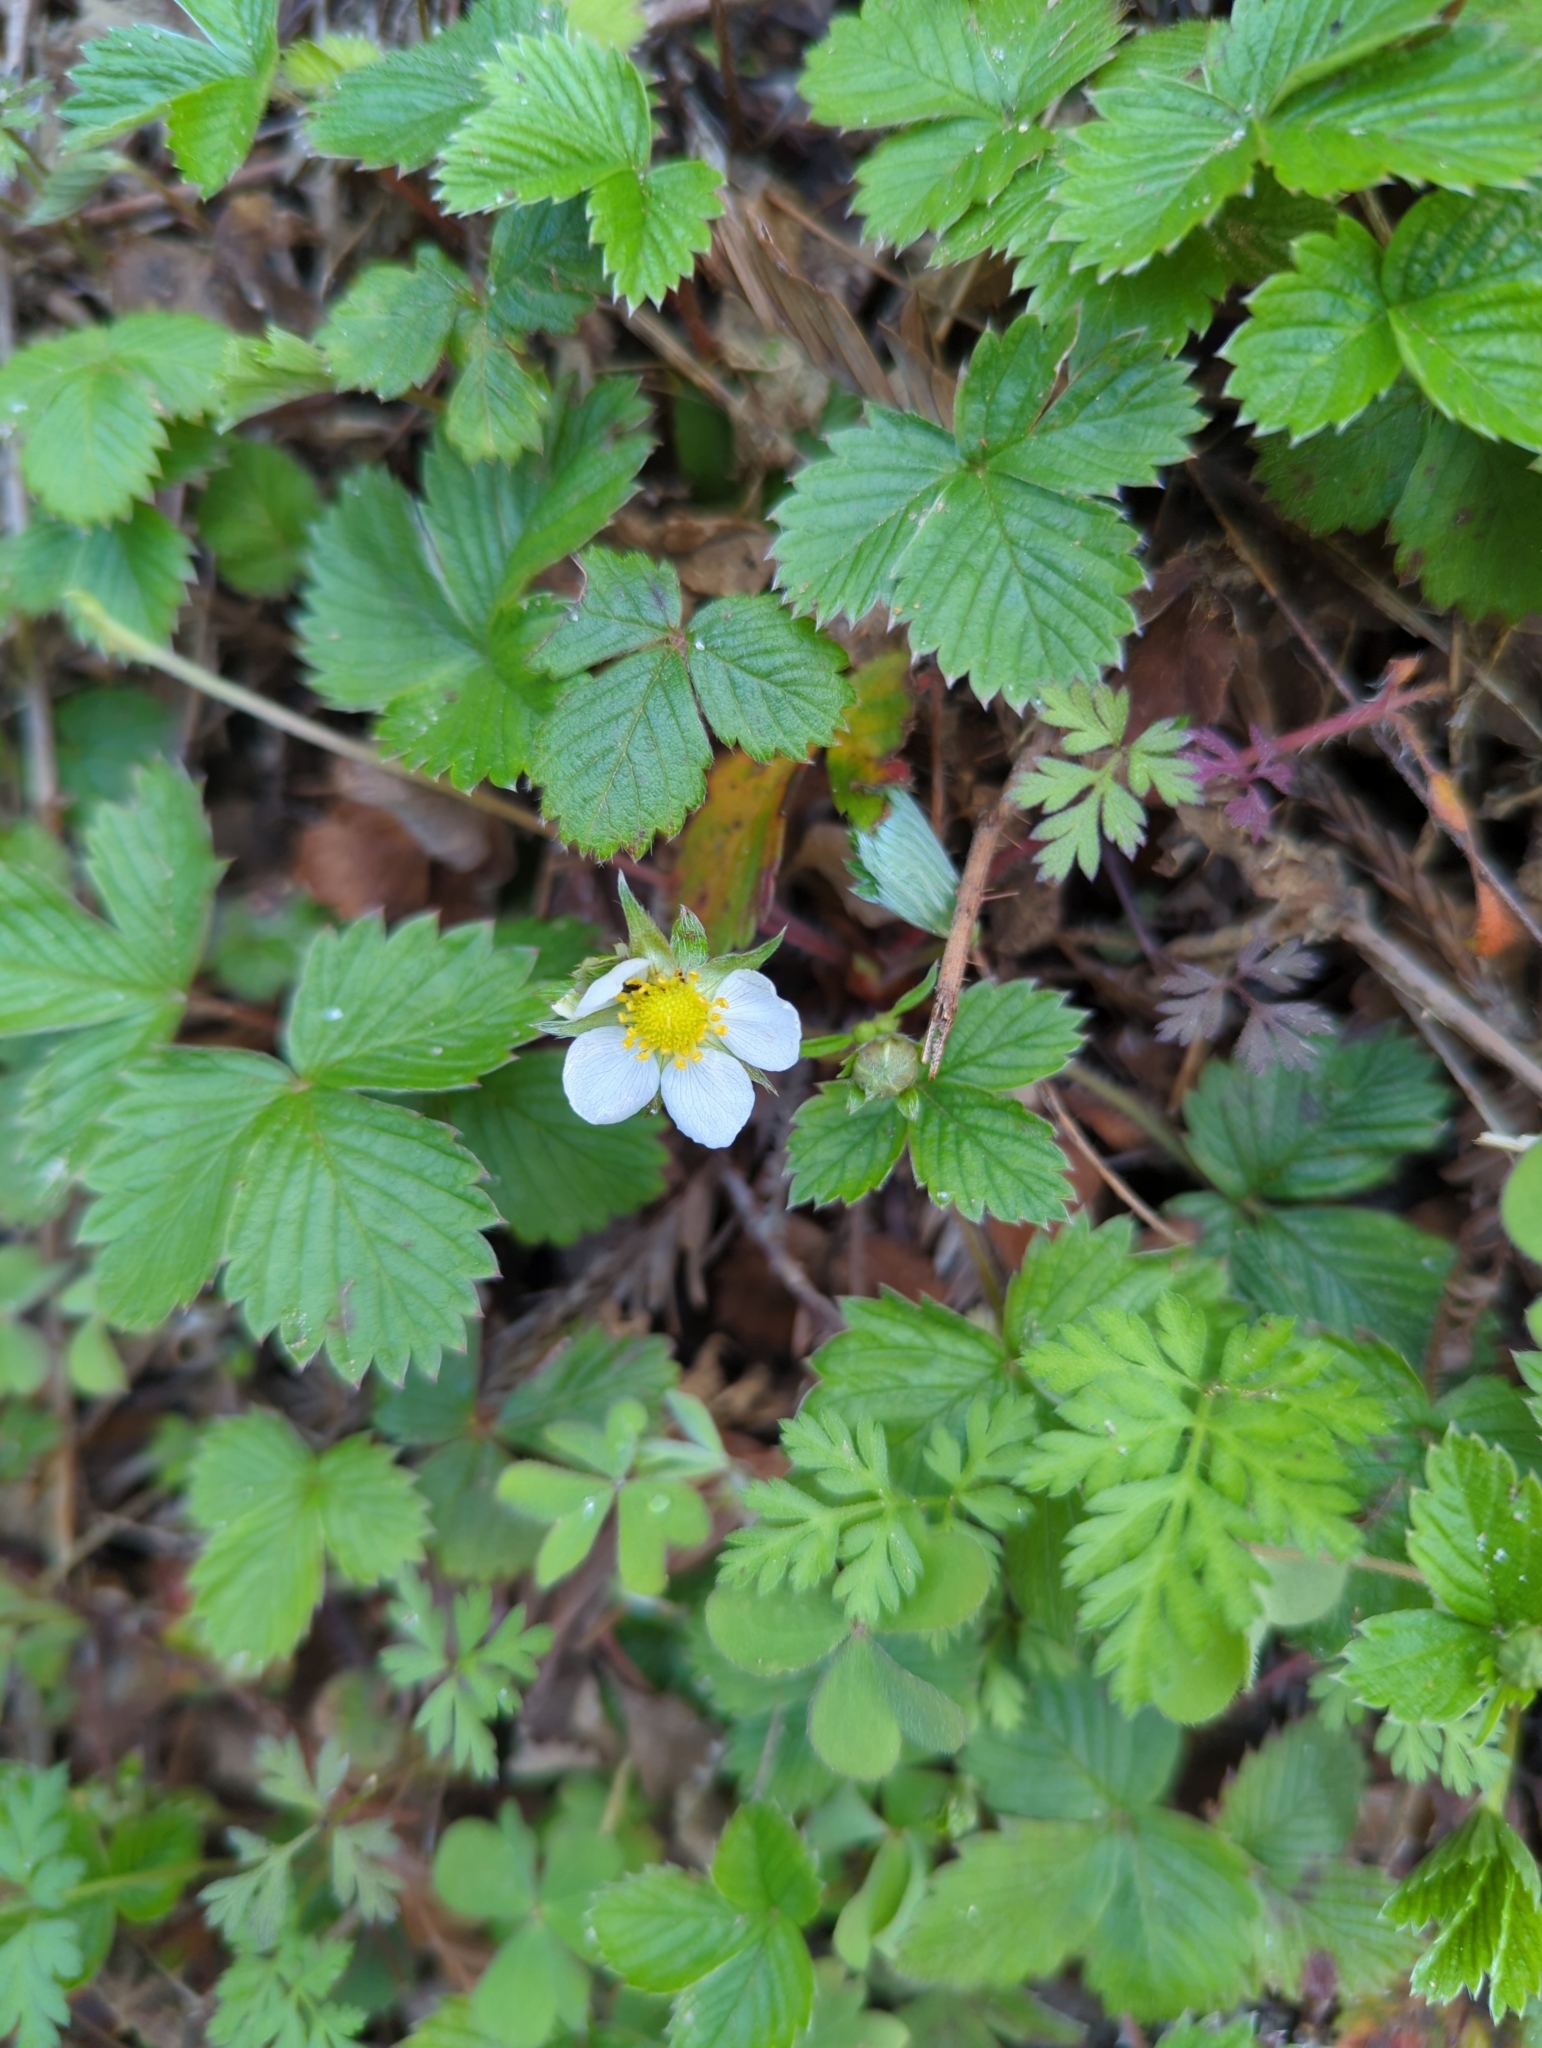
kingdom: Plantae
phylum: Tracheophyta
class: Magnoliopsida
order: Rosales
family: Rosaceae
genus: Fragaria
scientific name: Fragaria vesca
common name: Wild strawberry
